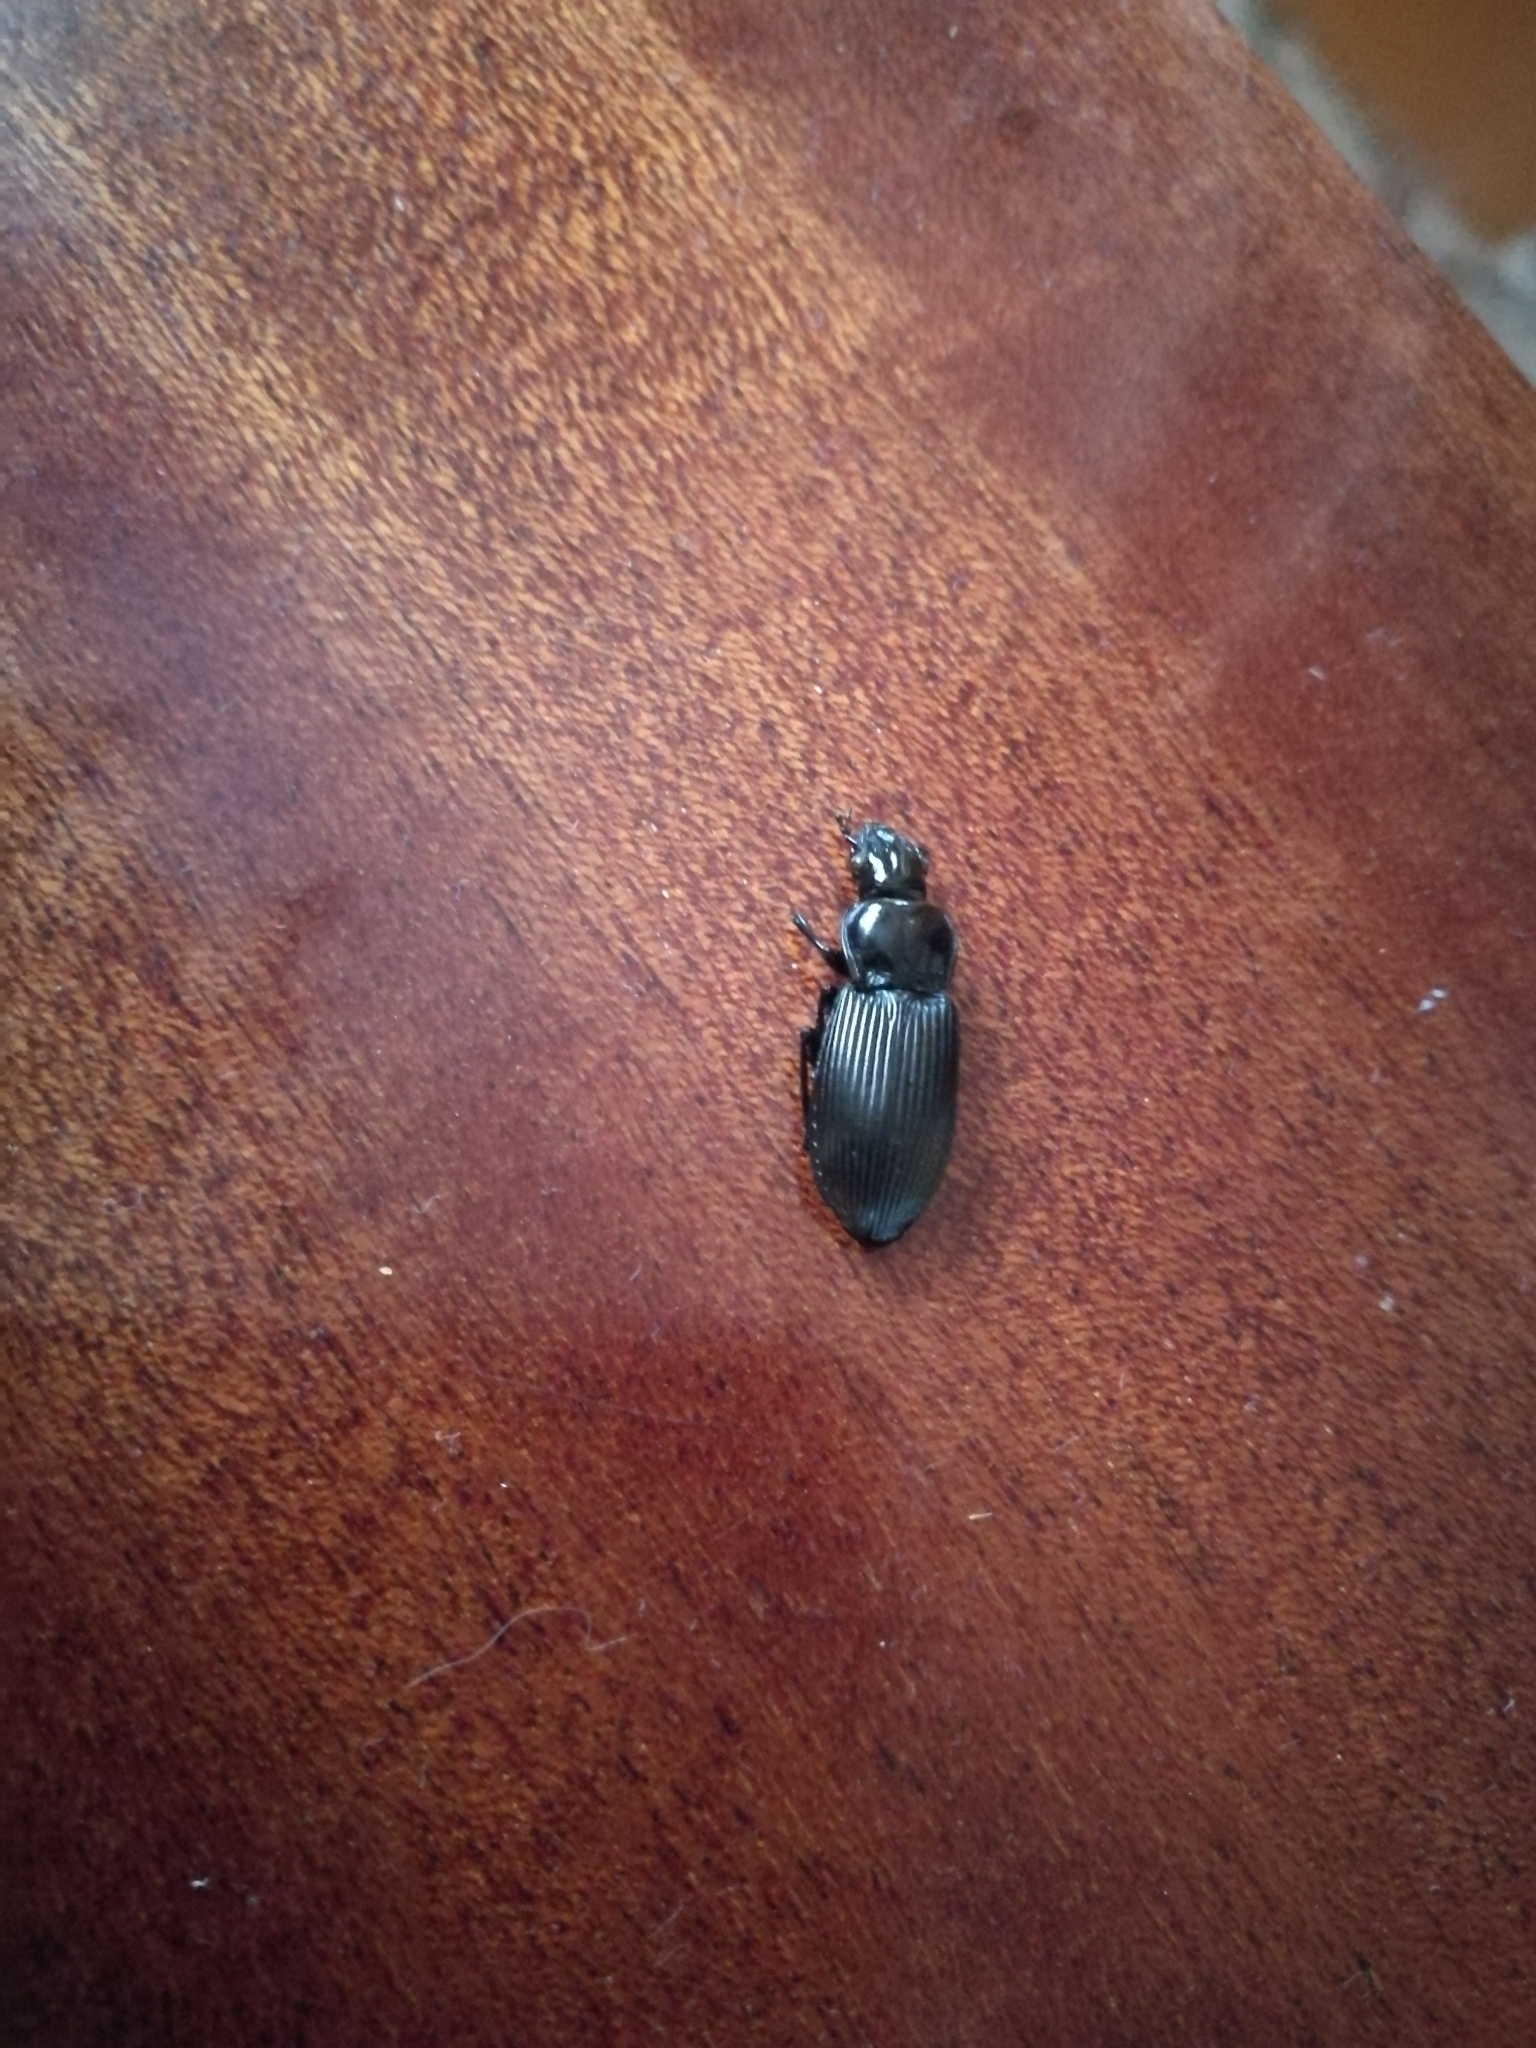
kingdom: Animalia
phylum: Arthropoda
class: Insecta
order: Coleoptera
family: Carabidae
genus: Pterostichus
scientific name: Pterostichus melanarius
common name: European dark harp ground beetle
